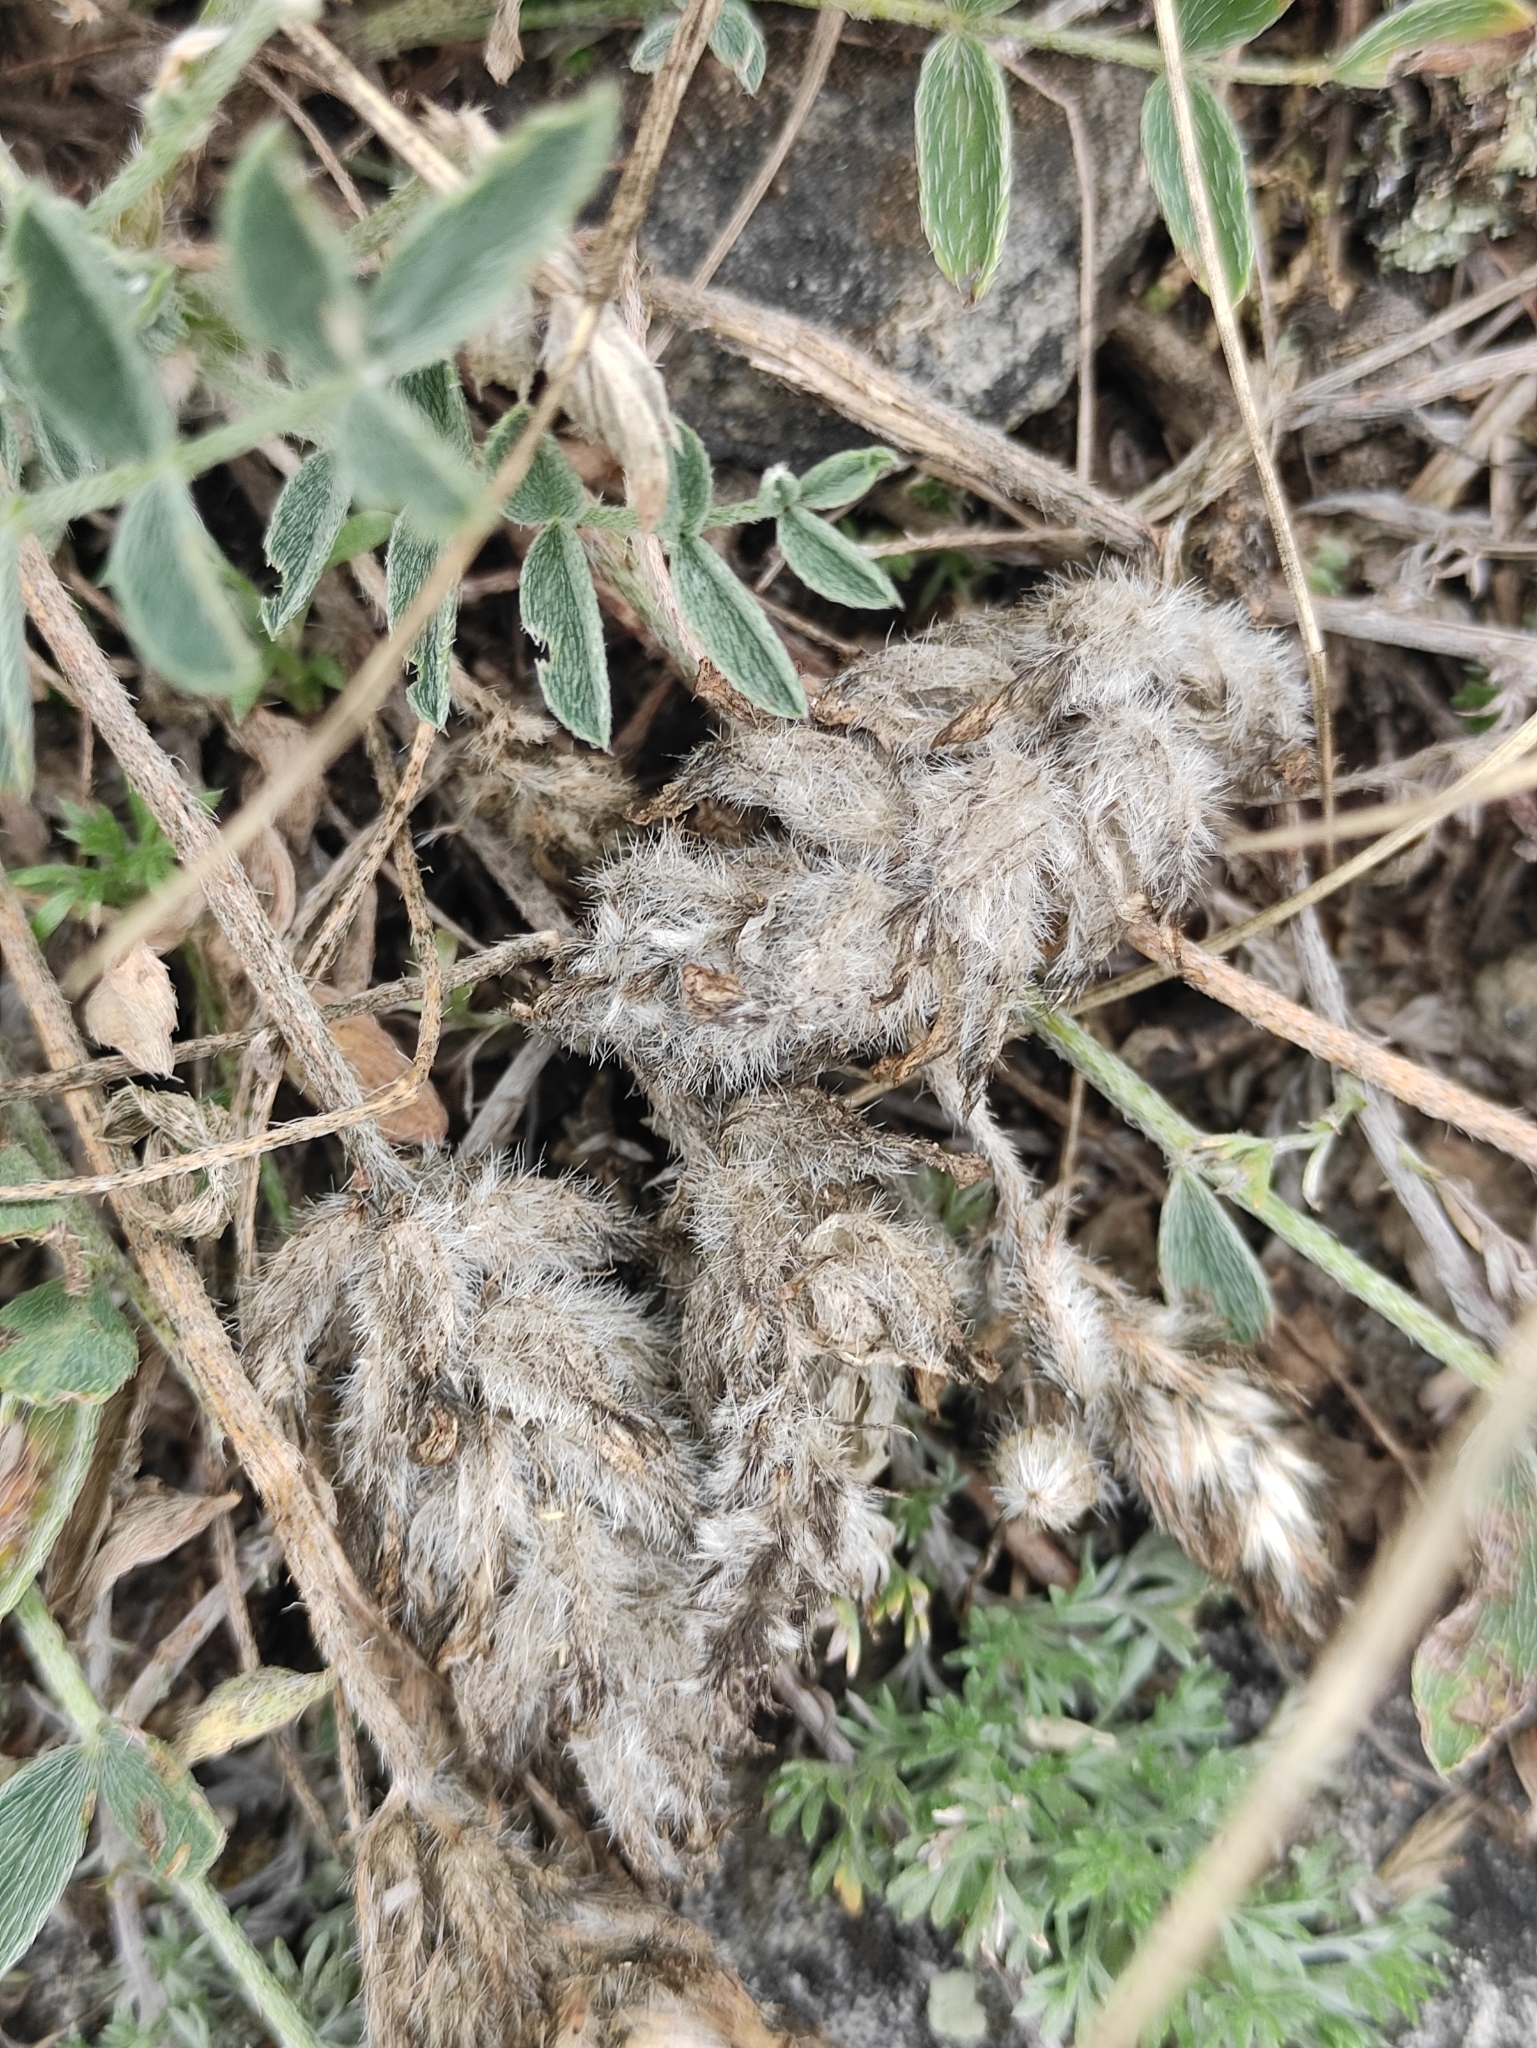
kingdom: Plantae
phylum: Tracheophyta
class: Magnoliopsida
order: Fabales
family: Fabaceae
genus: Astragalus
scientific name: Astragalus lupulinus
